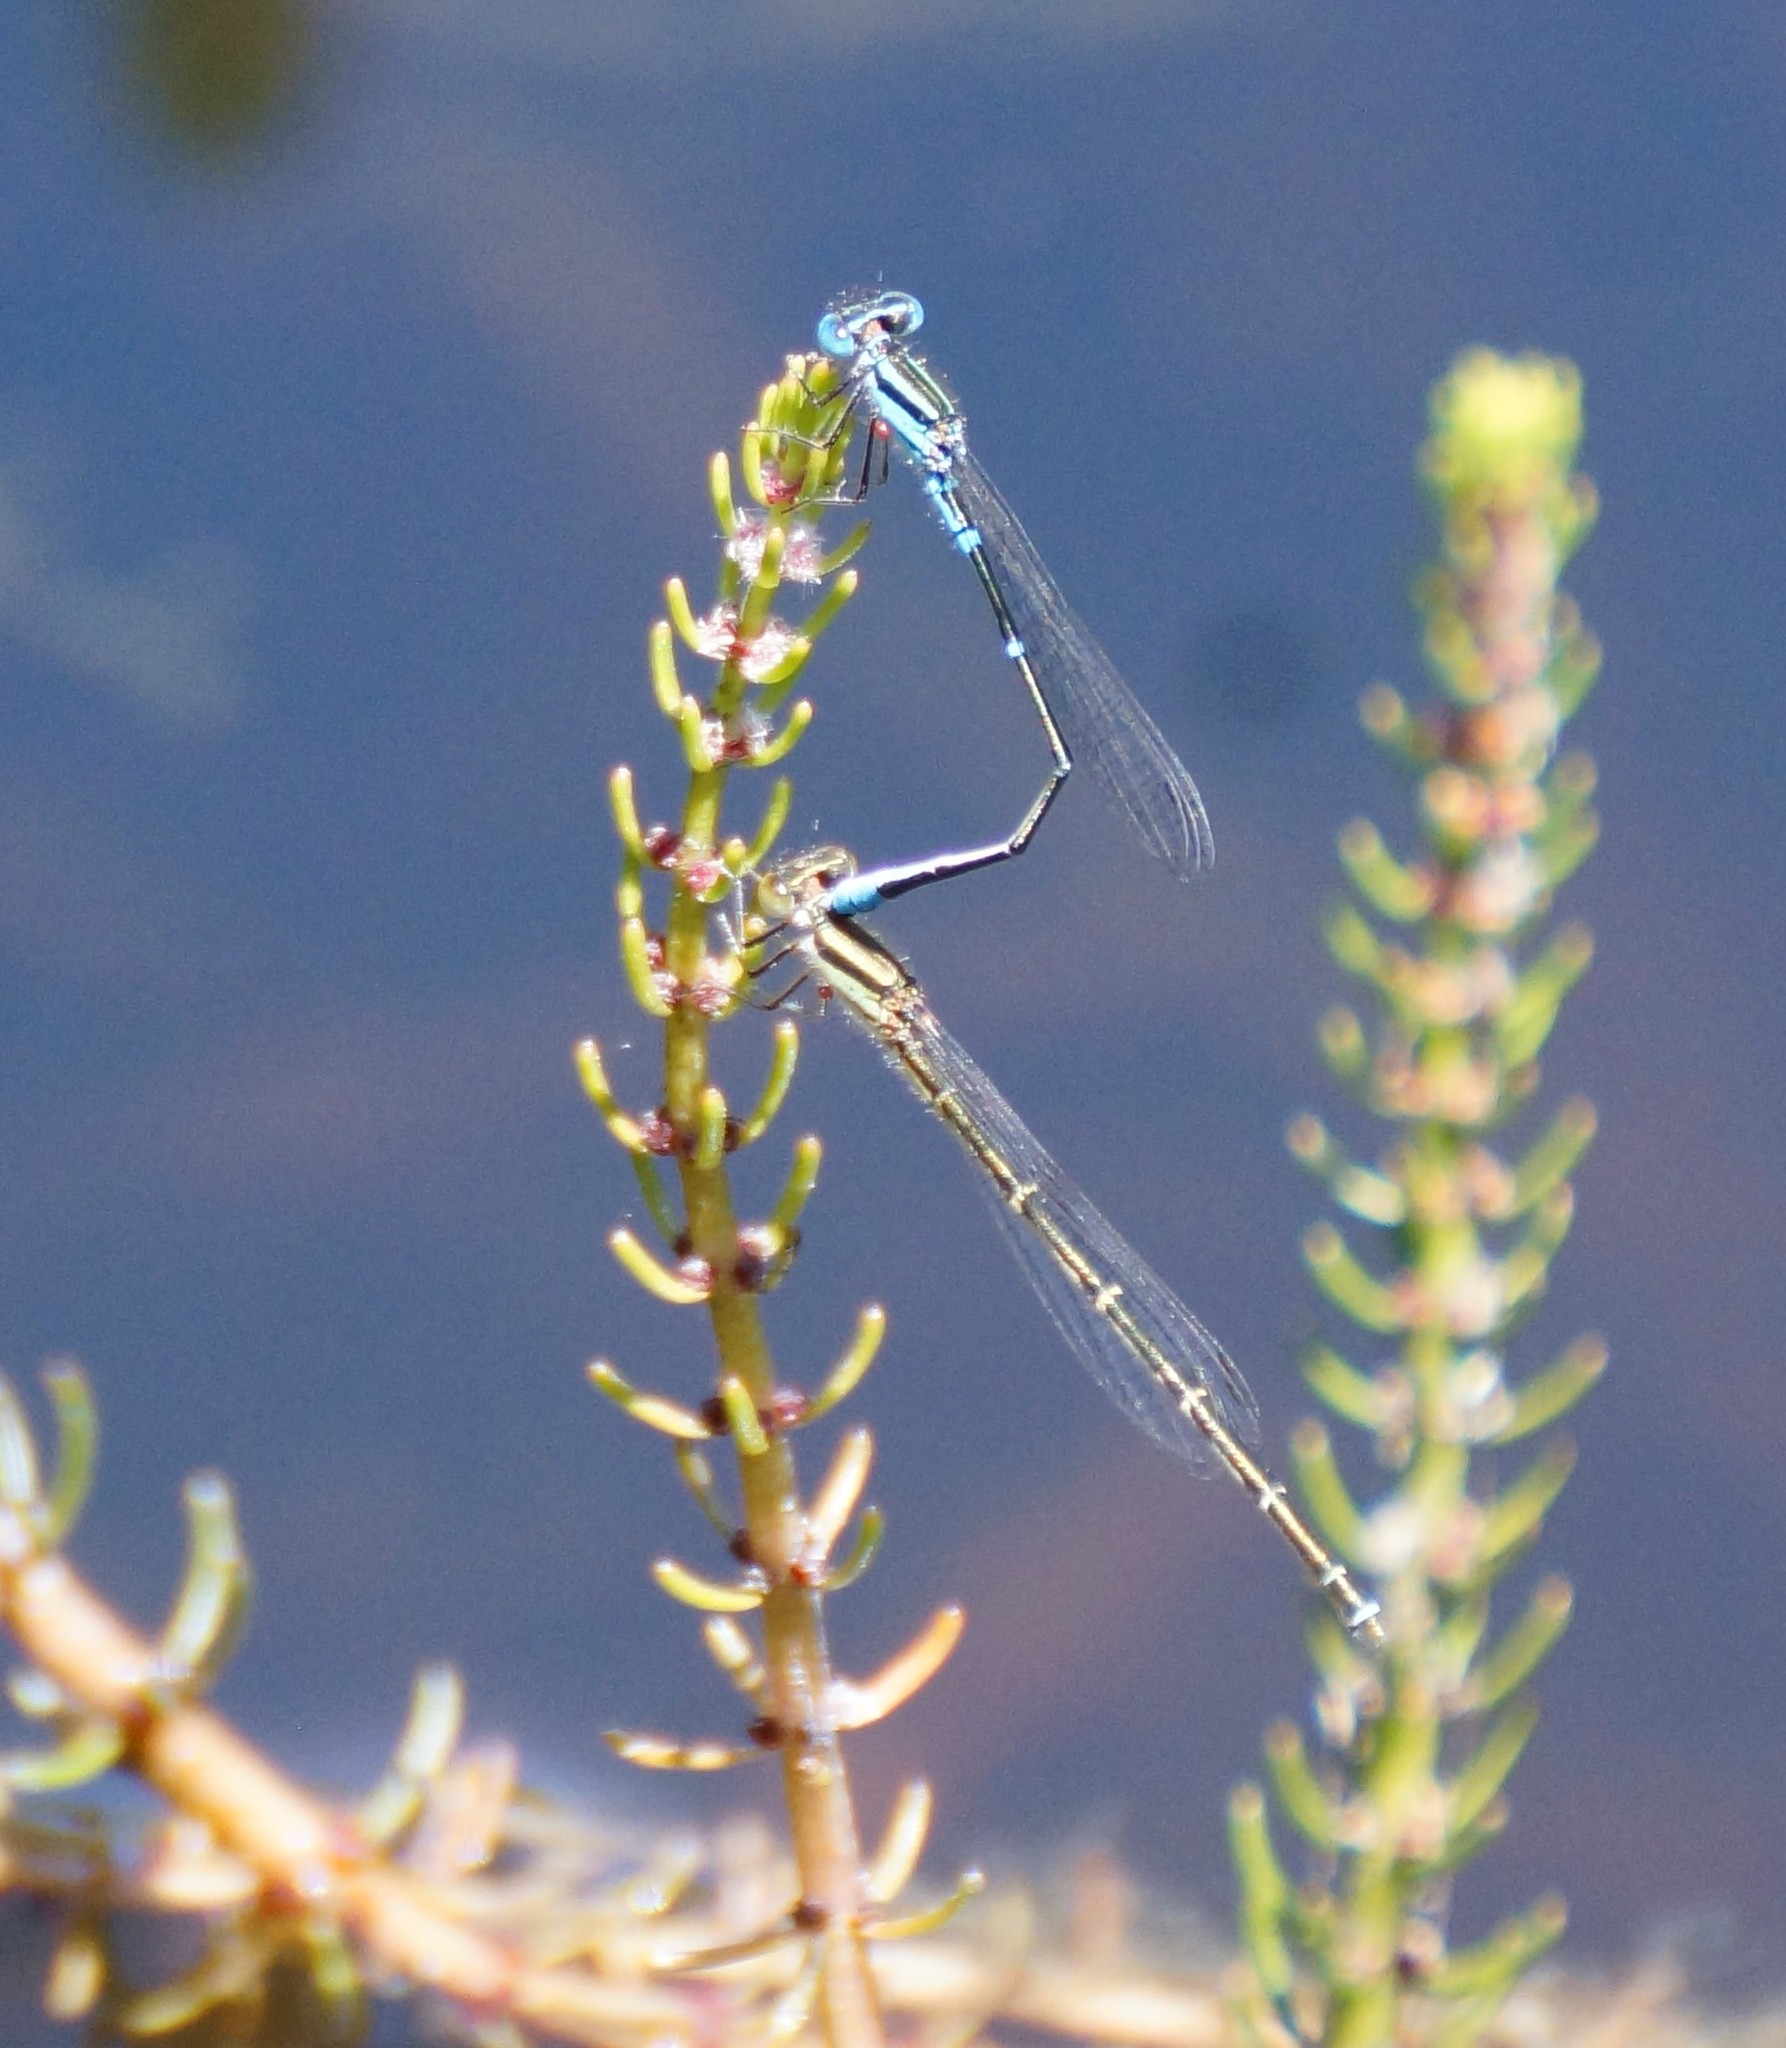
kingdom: Animalia
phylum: Arthropoda
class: Insecta
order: Odonata
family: Coenagrionidae
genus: Austroagrion
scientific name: Austroagrion watsoni
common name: Eastern billabongfly
